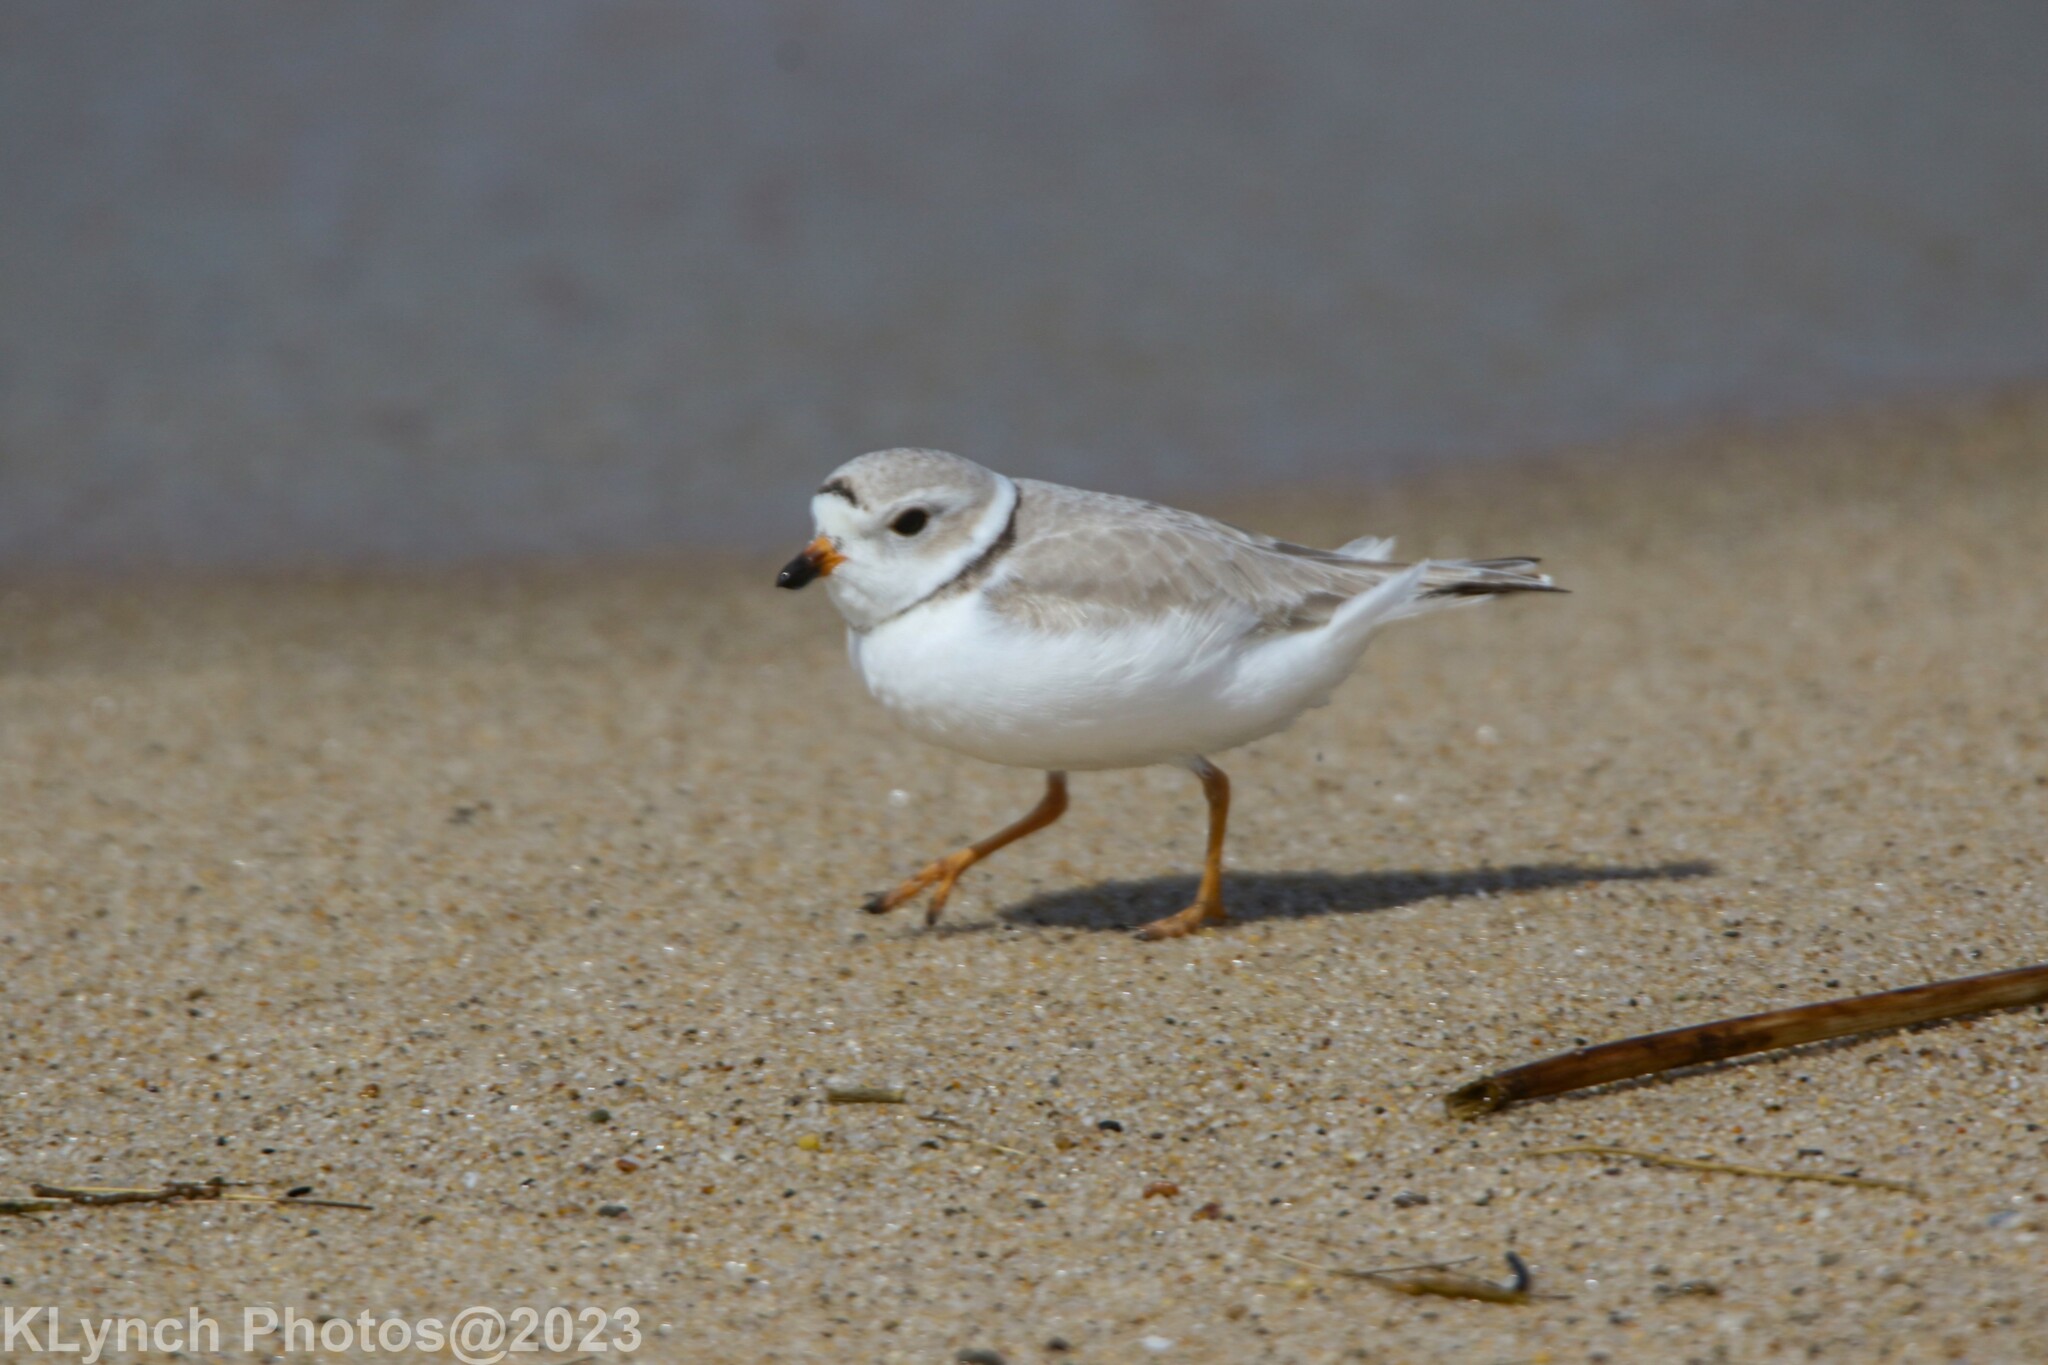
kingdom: Animalia
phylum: Chordata
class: Aves
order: Charadriiformes
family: Charadriidae
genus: Charadrius
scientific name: Charadrius melodus
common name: Piping plover
